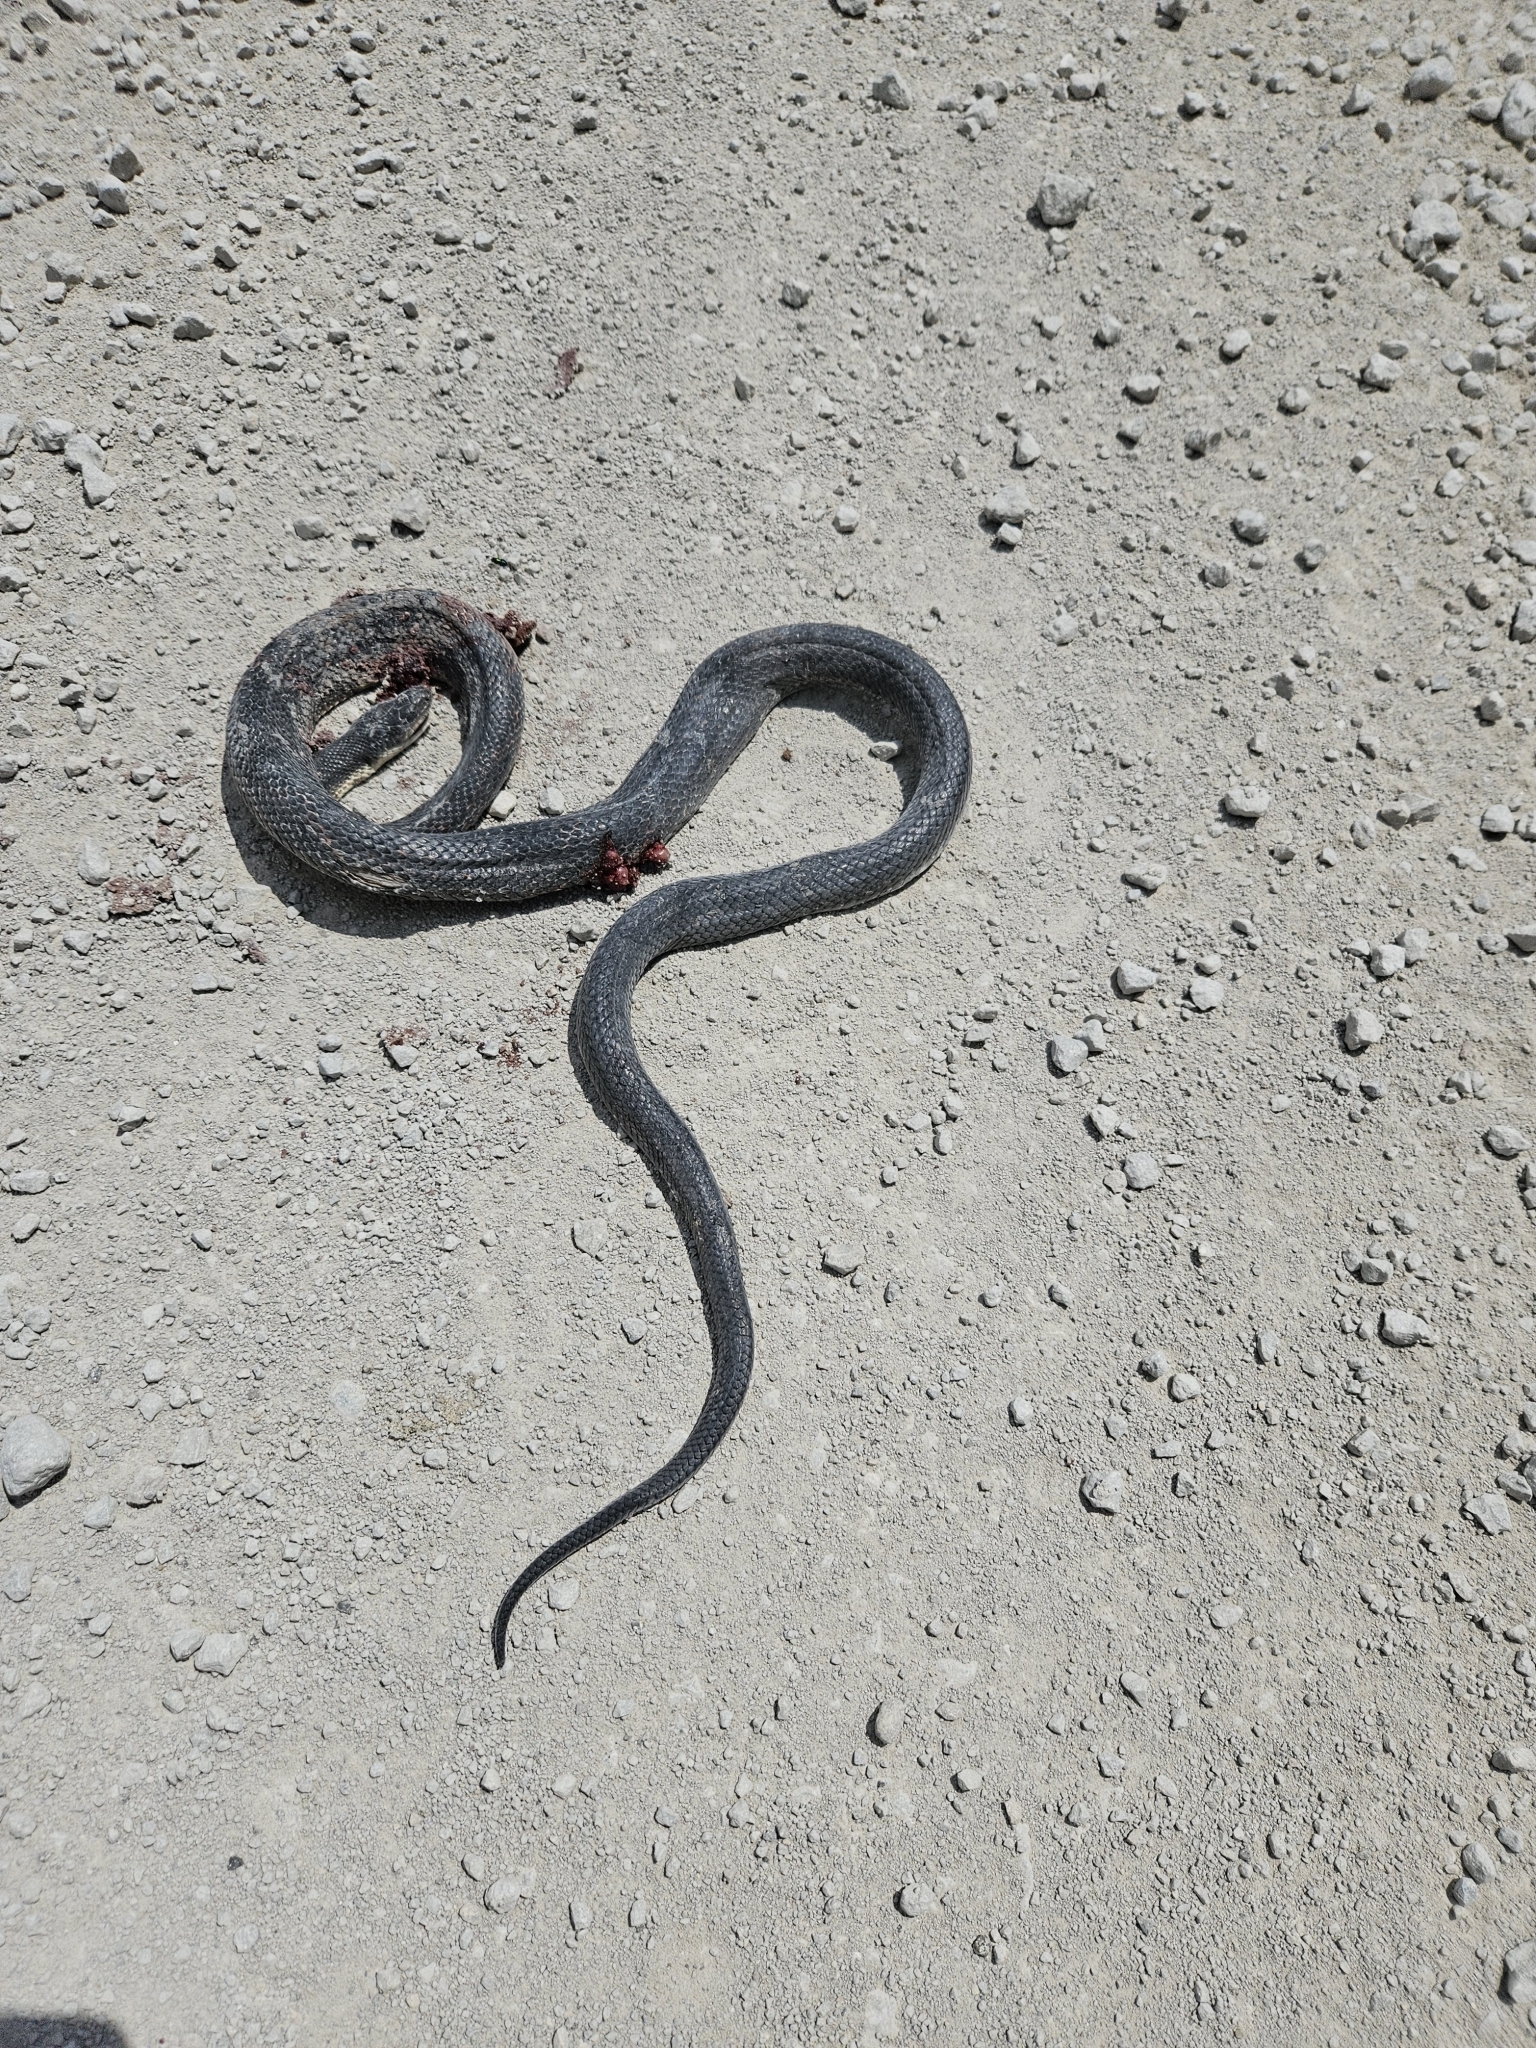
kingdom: Animalia
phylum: Chordata
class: Squamata
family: Colubridae
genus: Pantherophis
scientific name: Pantherophis obsoletus
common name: Black rat snake
